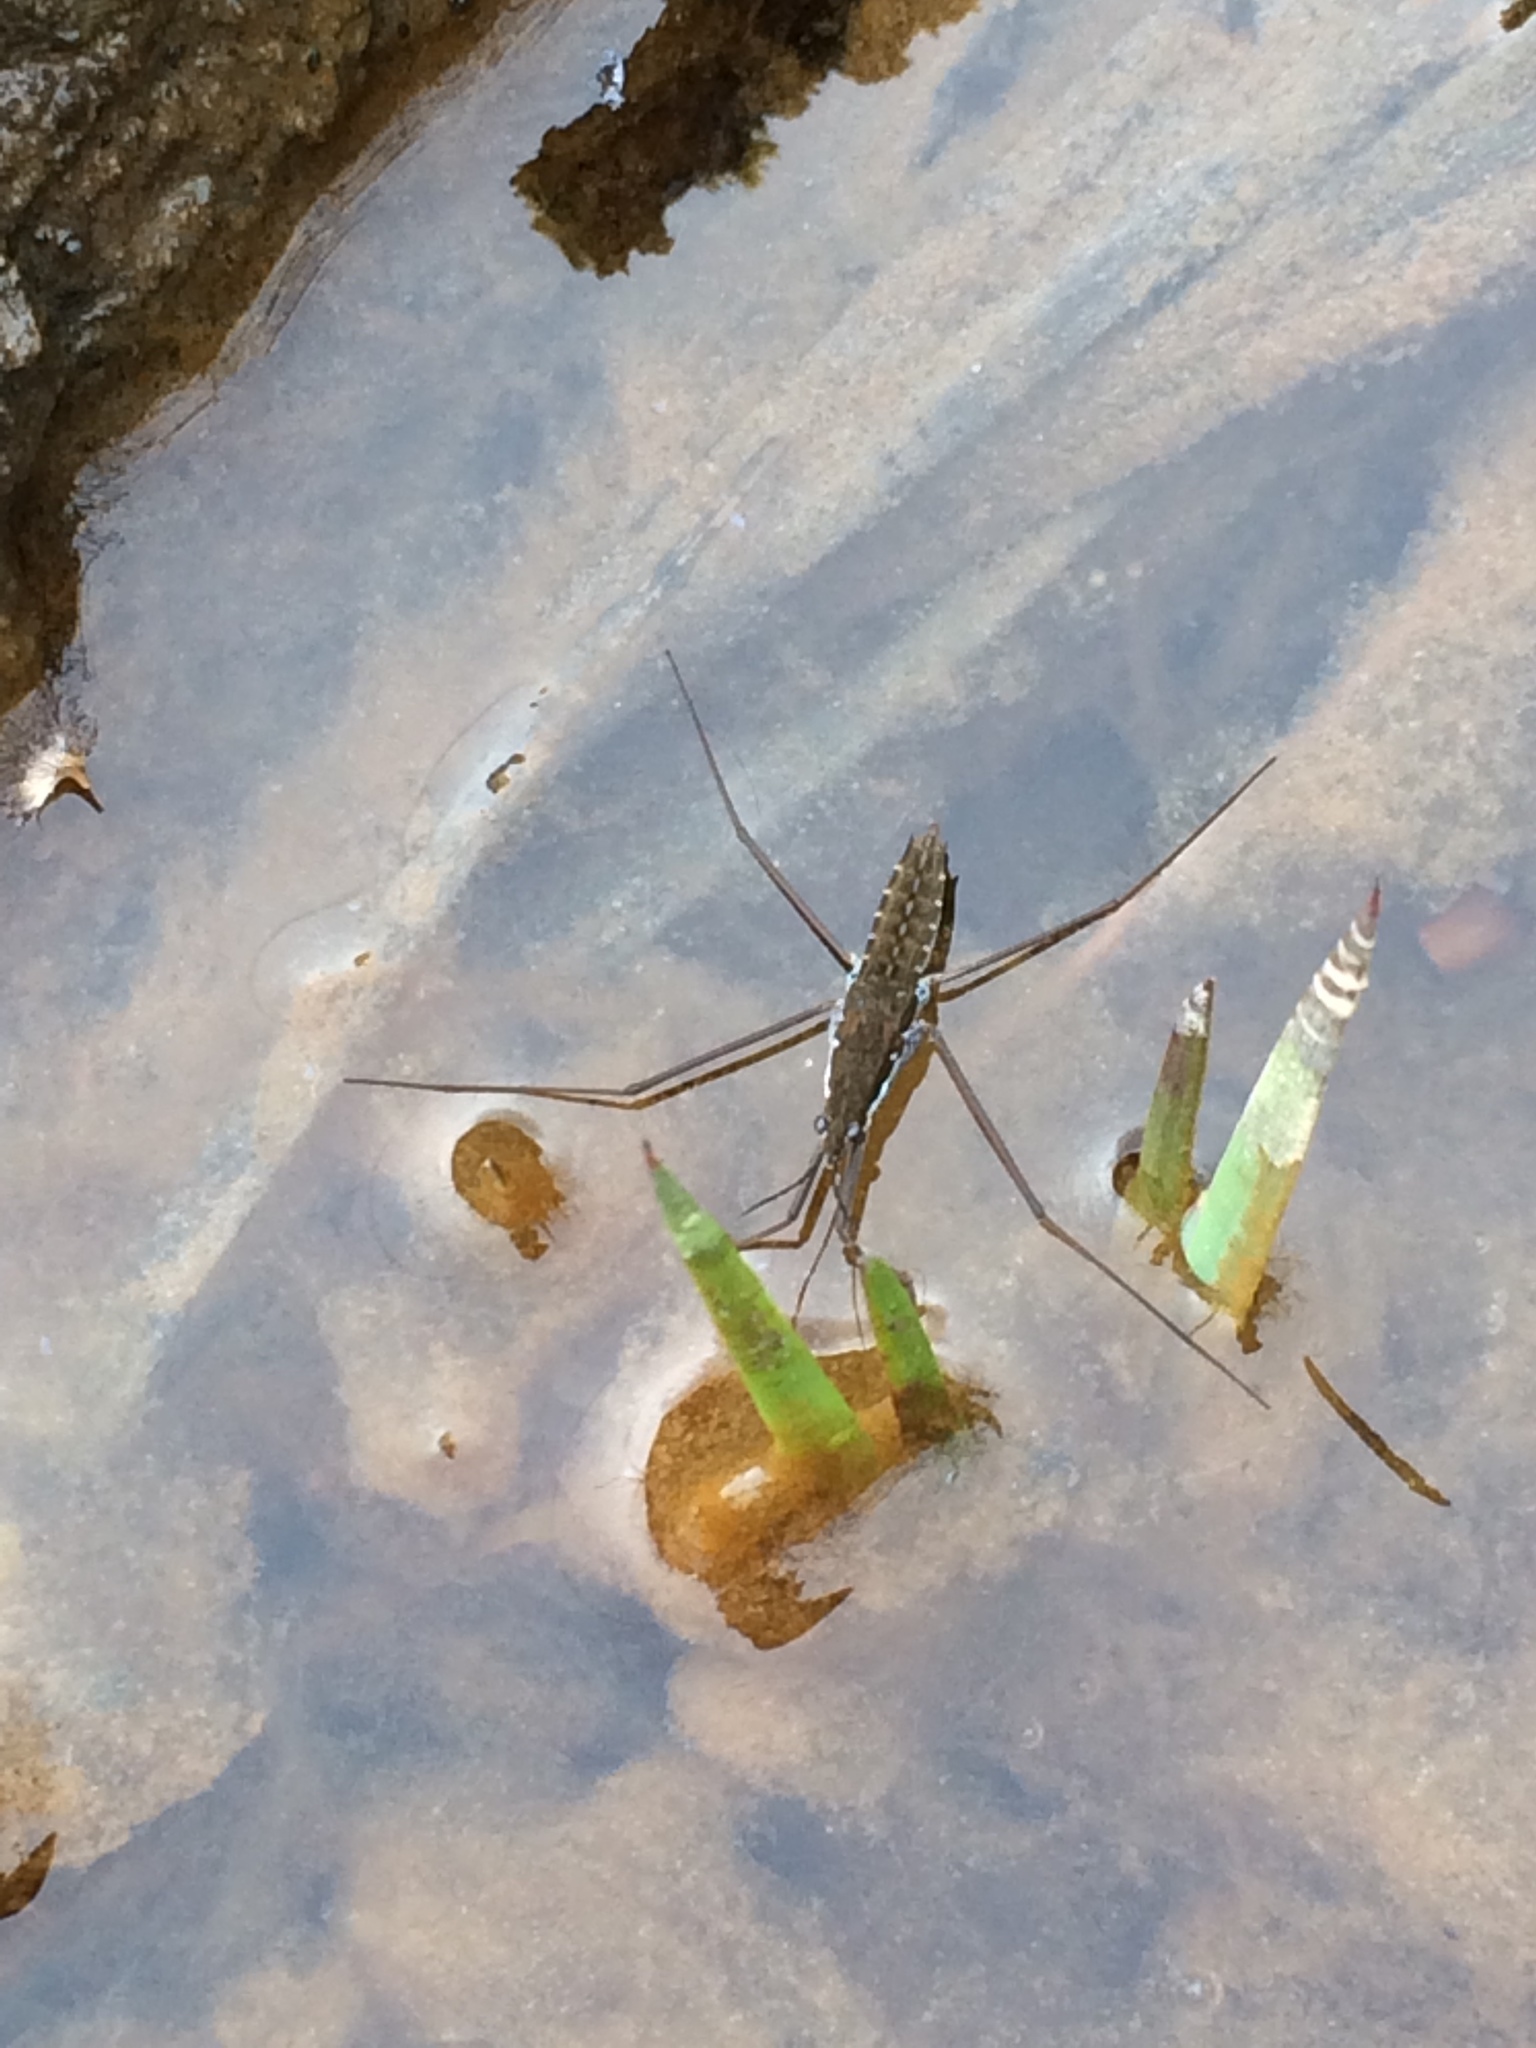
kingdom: Animalia
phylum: Arthropoda
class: Insecta
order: Hemiptera
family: Gerridae
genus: Aquarius
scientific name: Aquarius remigis
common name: Common water strider
